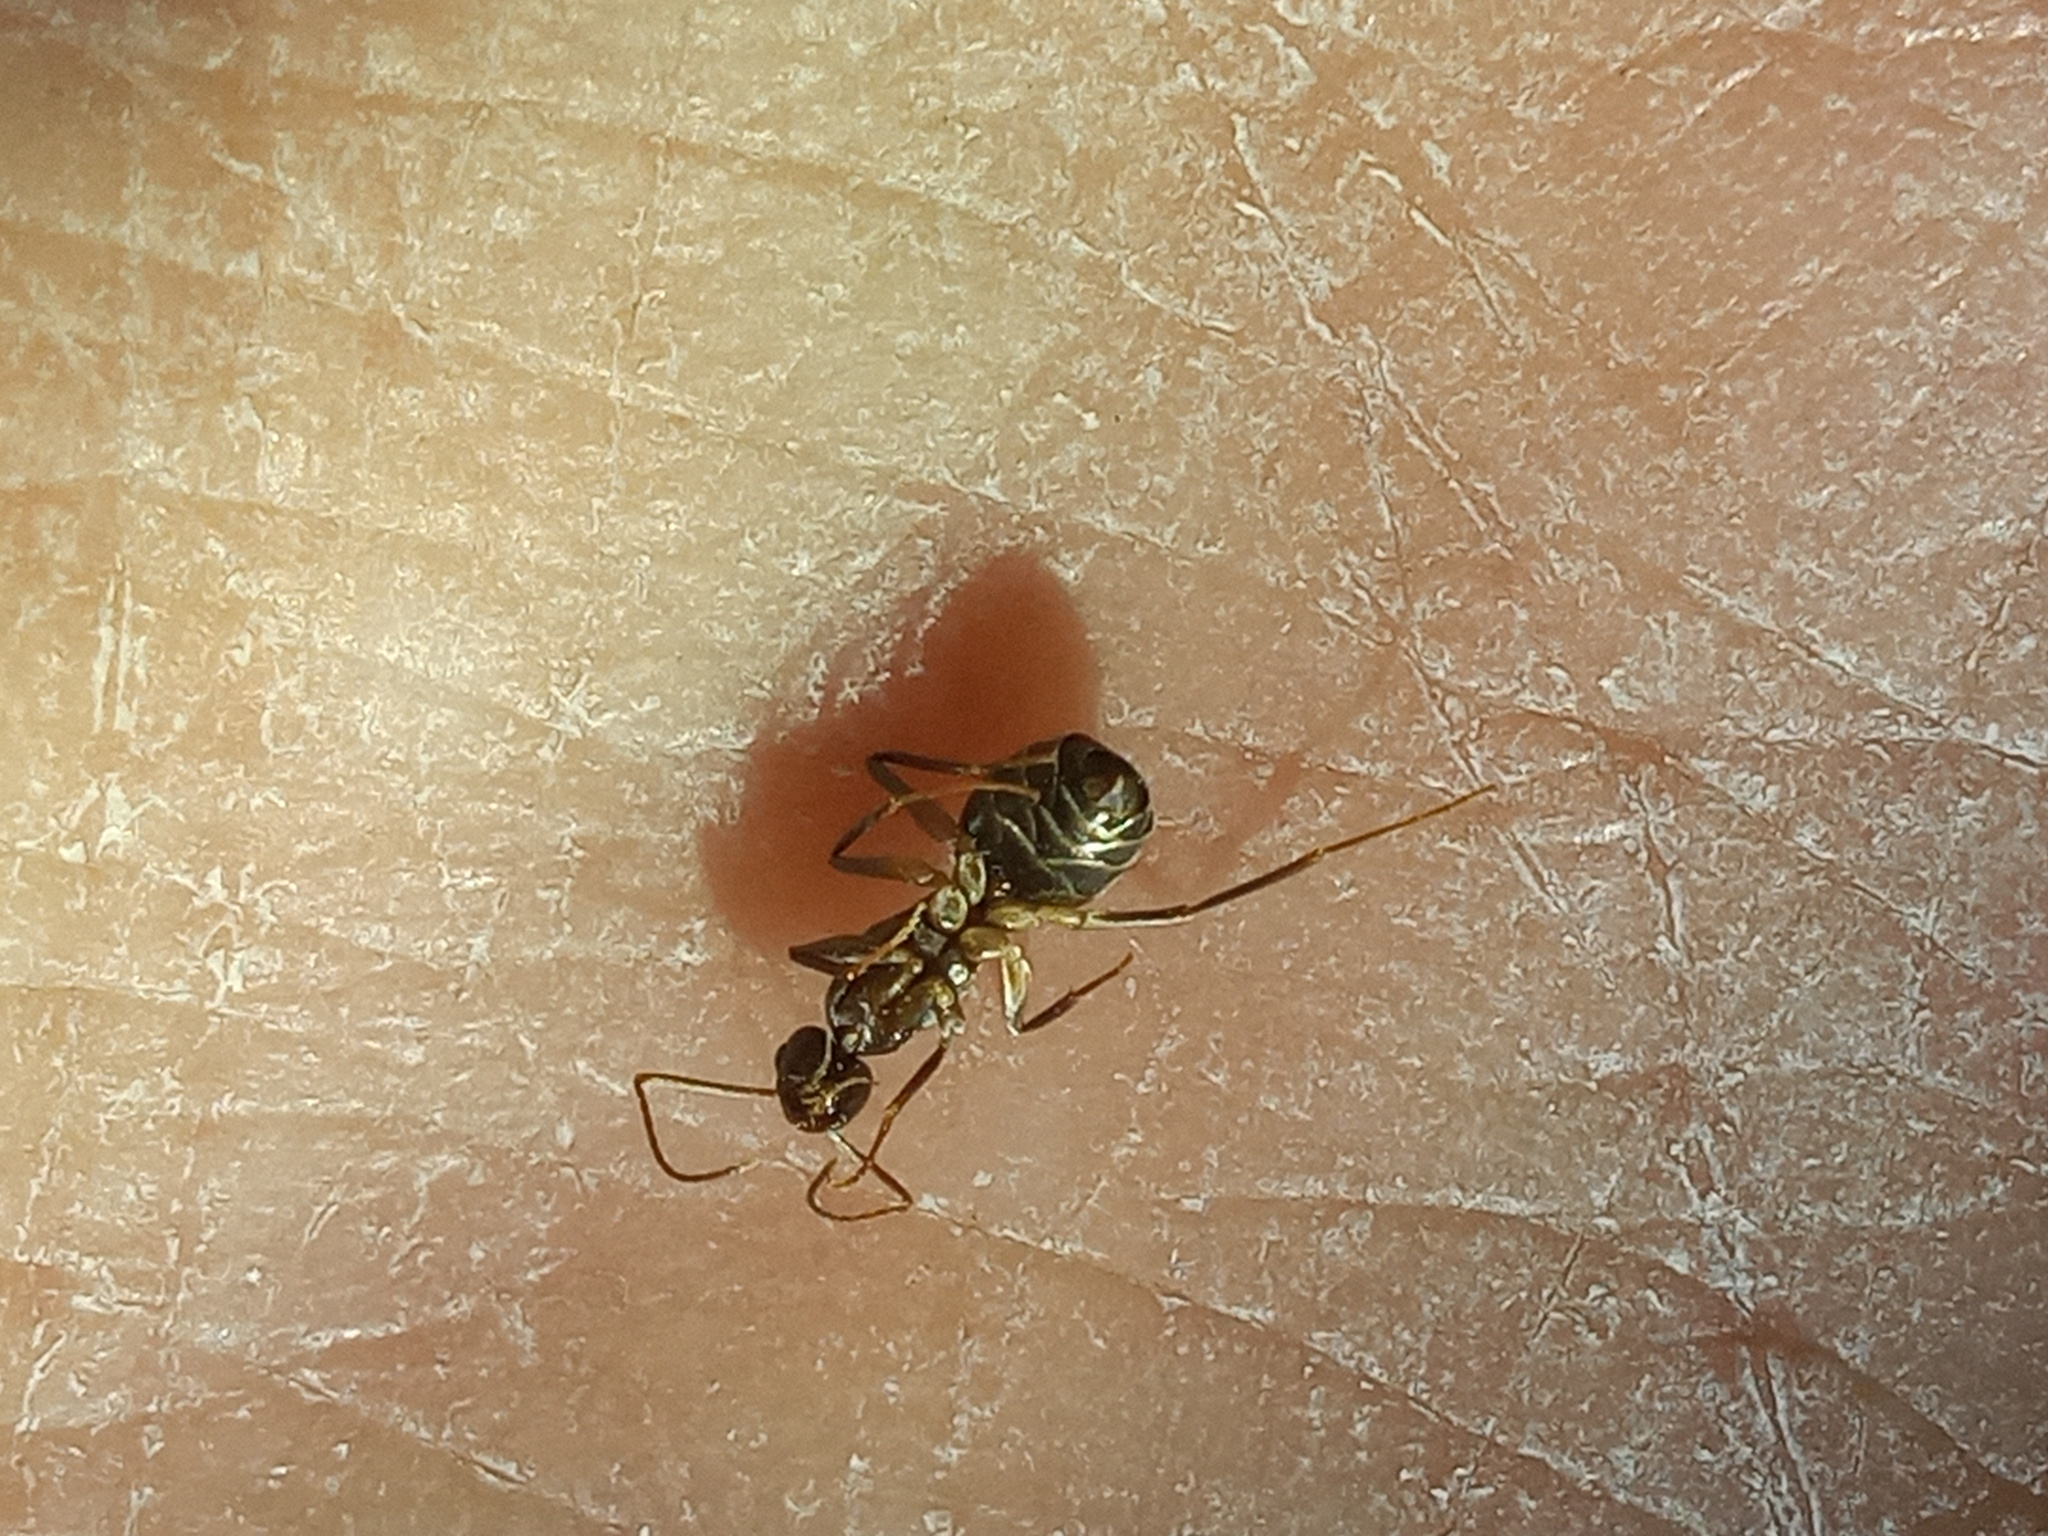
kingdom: Animalia
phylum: Arthropoda
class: Insecta
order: Hymenoptera
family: Formicidae
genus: Paratrechina
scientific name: Paratrechina longicornis
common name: Longhorned crazy ant
